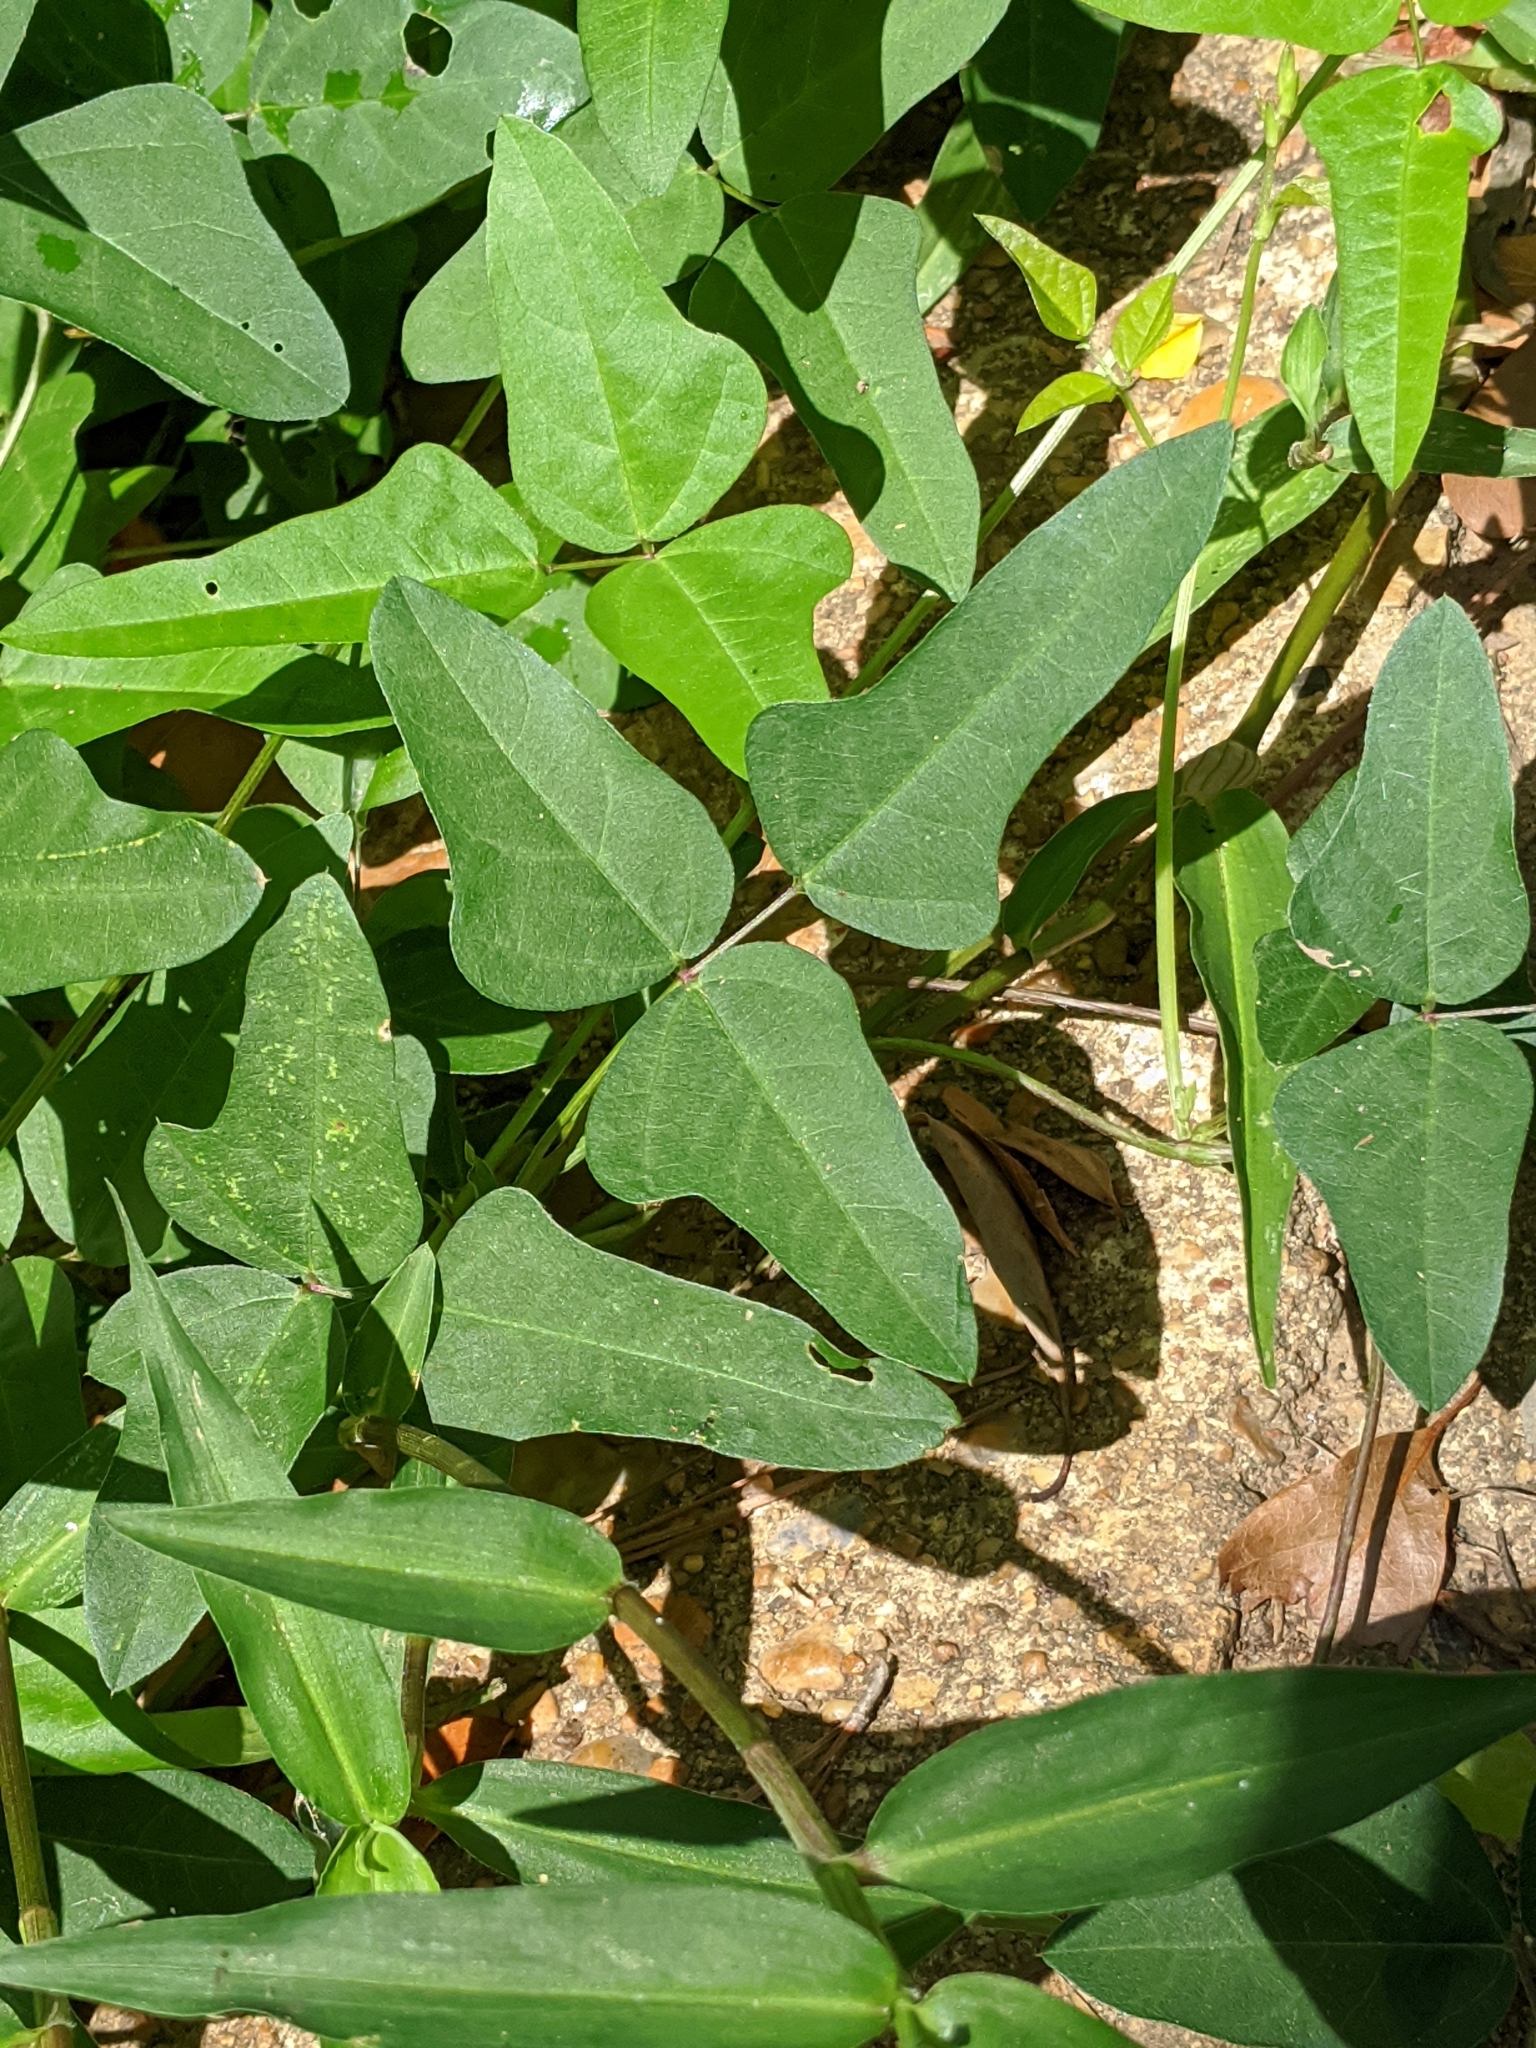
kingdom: Plantae
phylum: Tracheophyta
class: Magnoliopsida
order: Fabales
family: Fabaceae
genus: Strophostyles
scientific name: Strophostyles helvola
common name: Trailing wild bean
